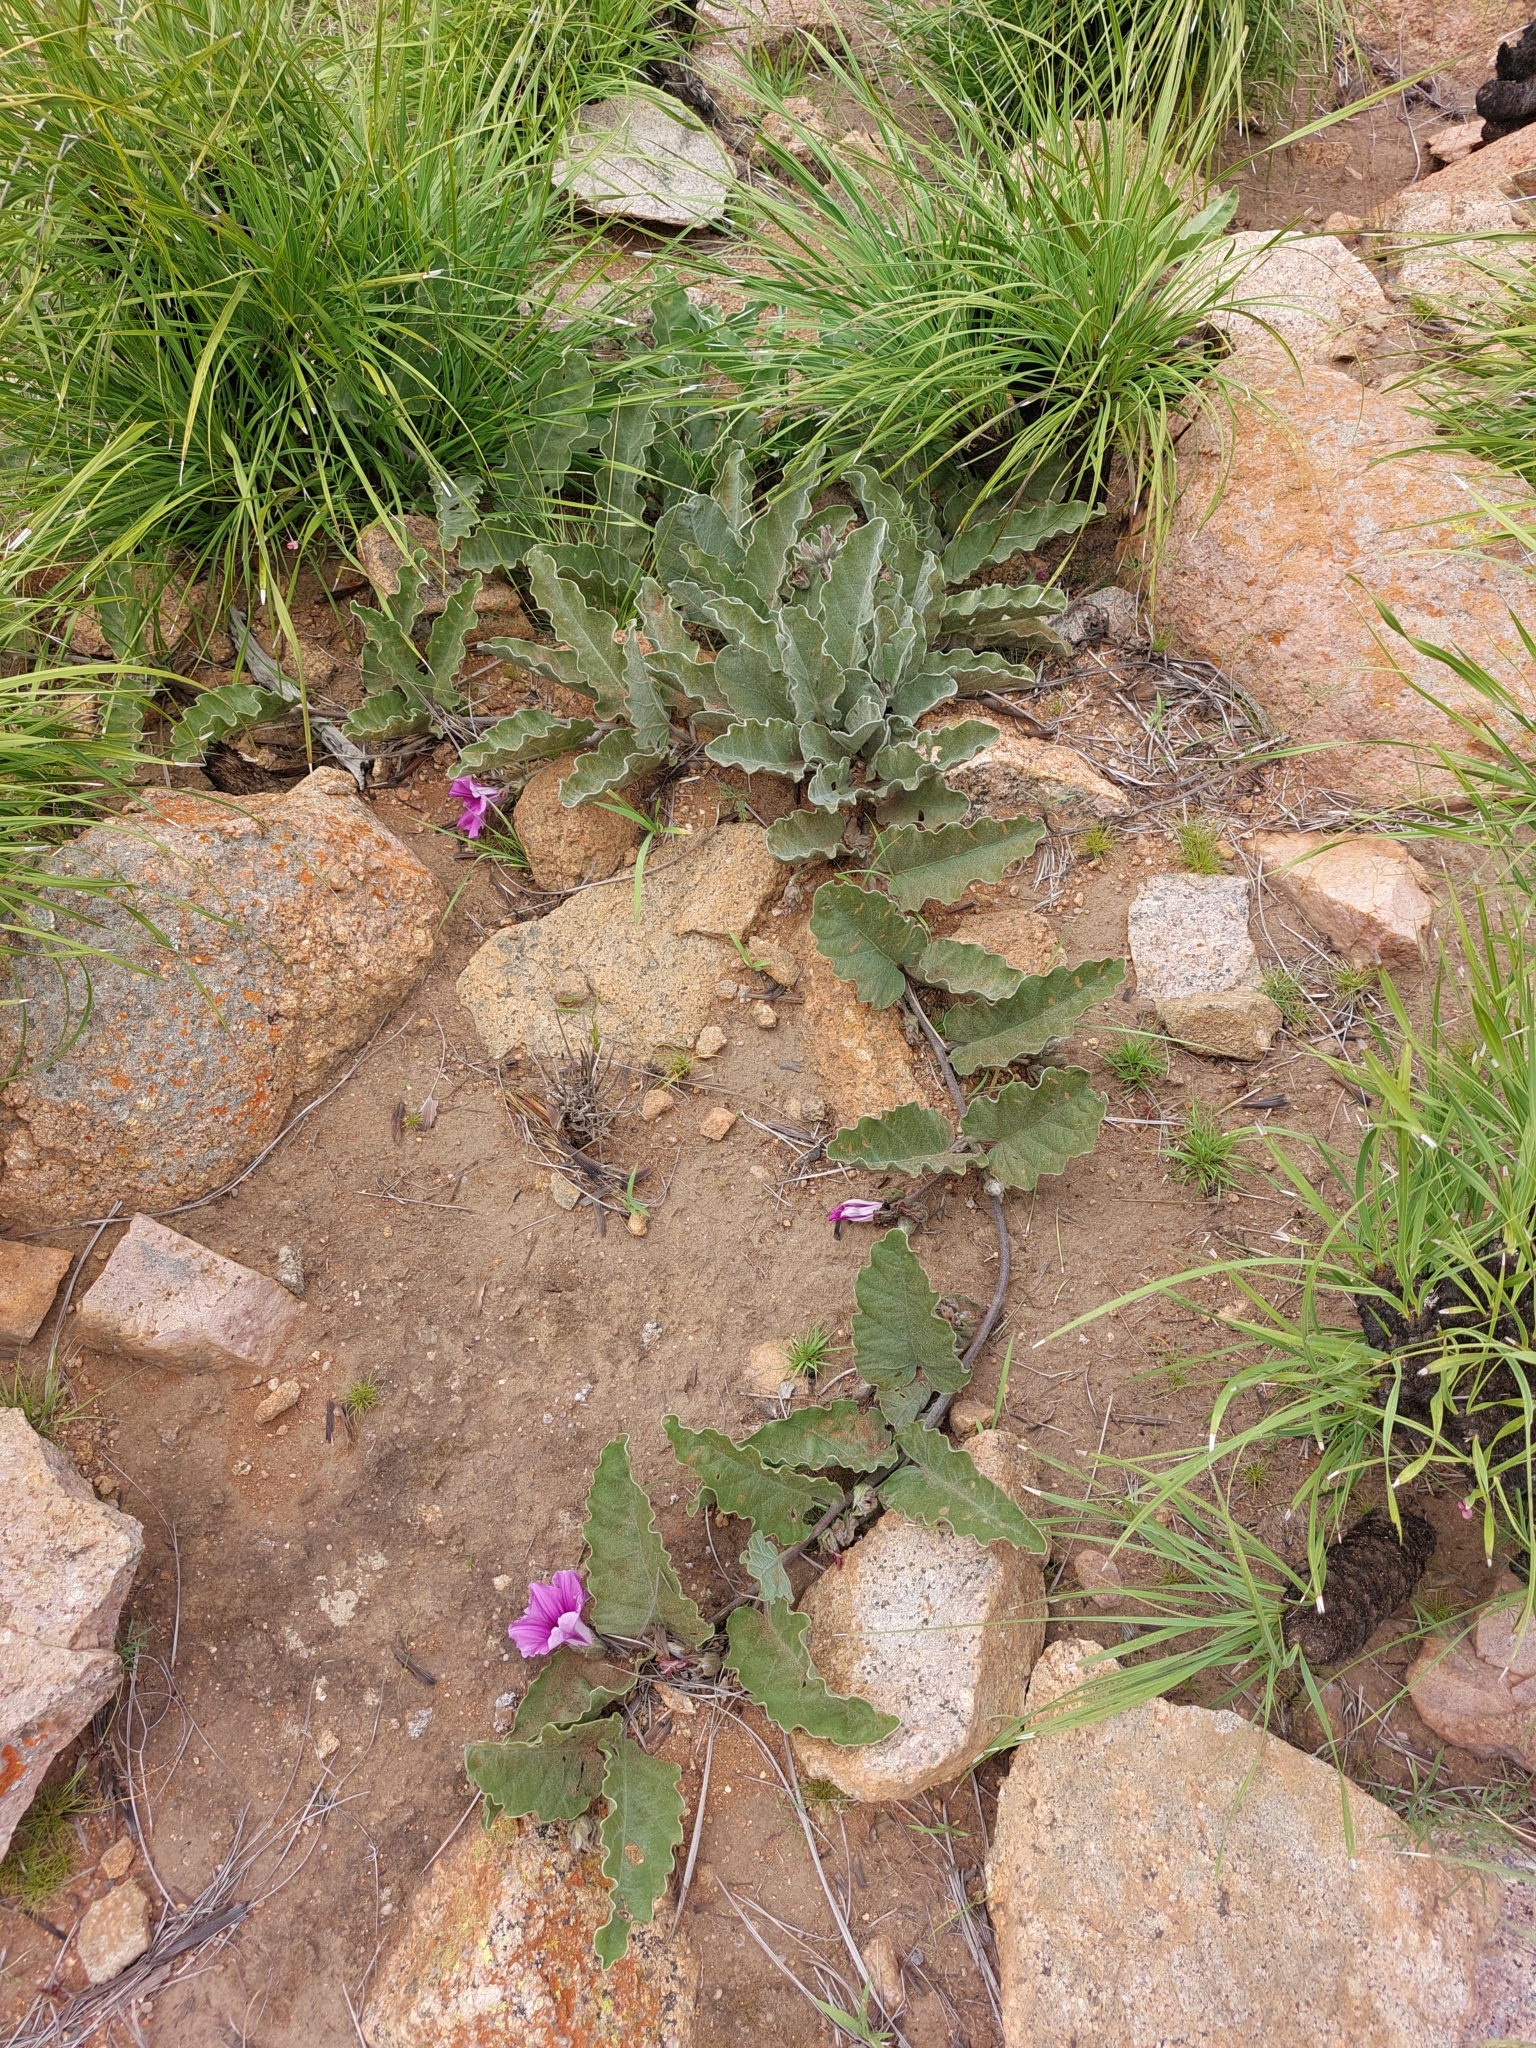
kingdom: Plantae
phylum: Tracheophyta
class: Magnoliopsida
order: Solanales
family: Convolvulaceae
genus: Ipomoea
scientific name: Ipomoea ommanneyi
